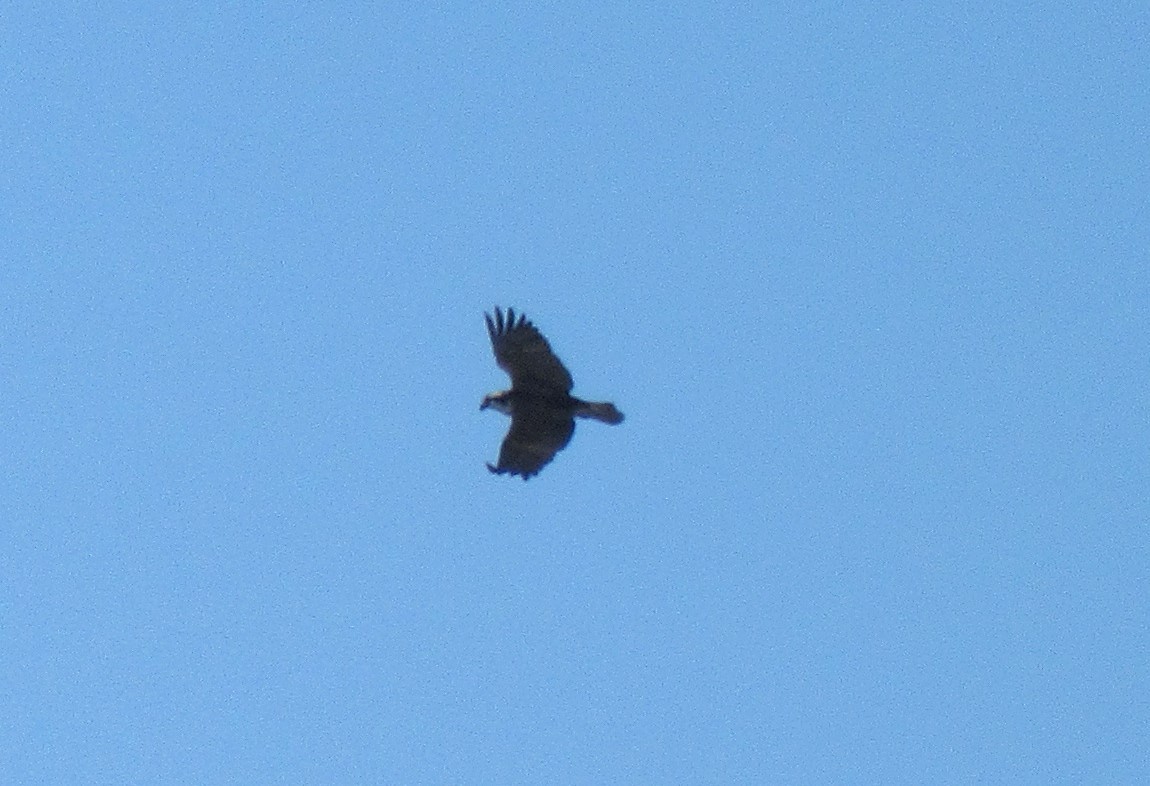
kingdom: Animalia
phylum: Chordata
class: Aves
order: Accipitriformes
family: Pandionidae
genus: Pandion
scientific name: Pandion haliaetus
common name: Osprey
